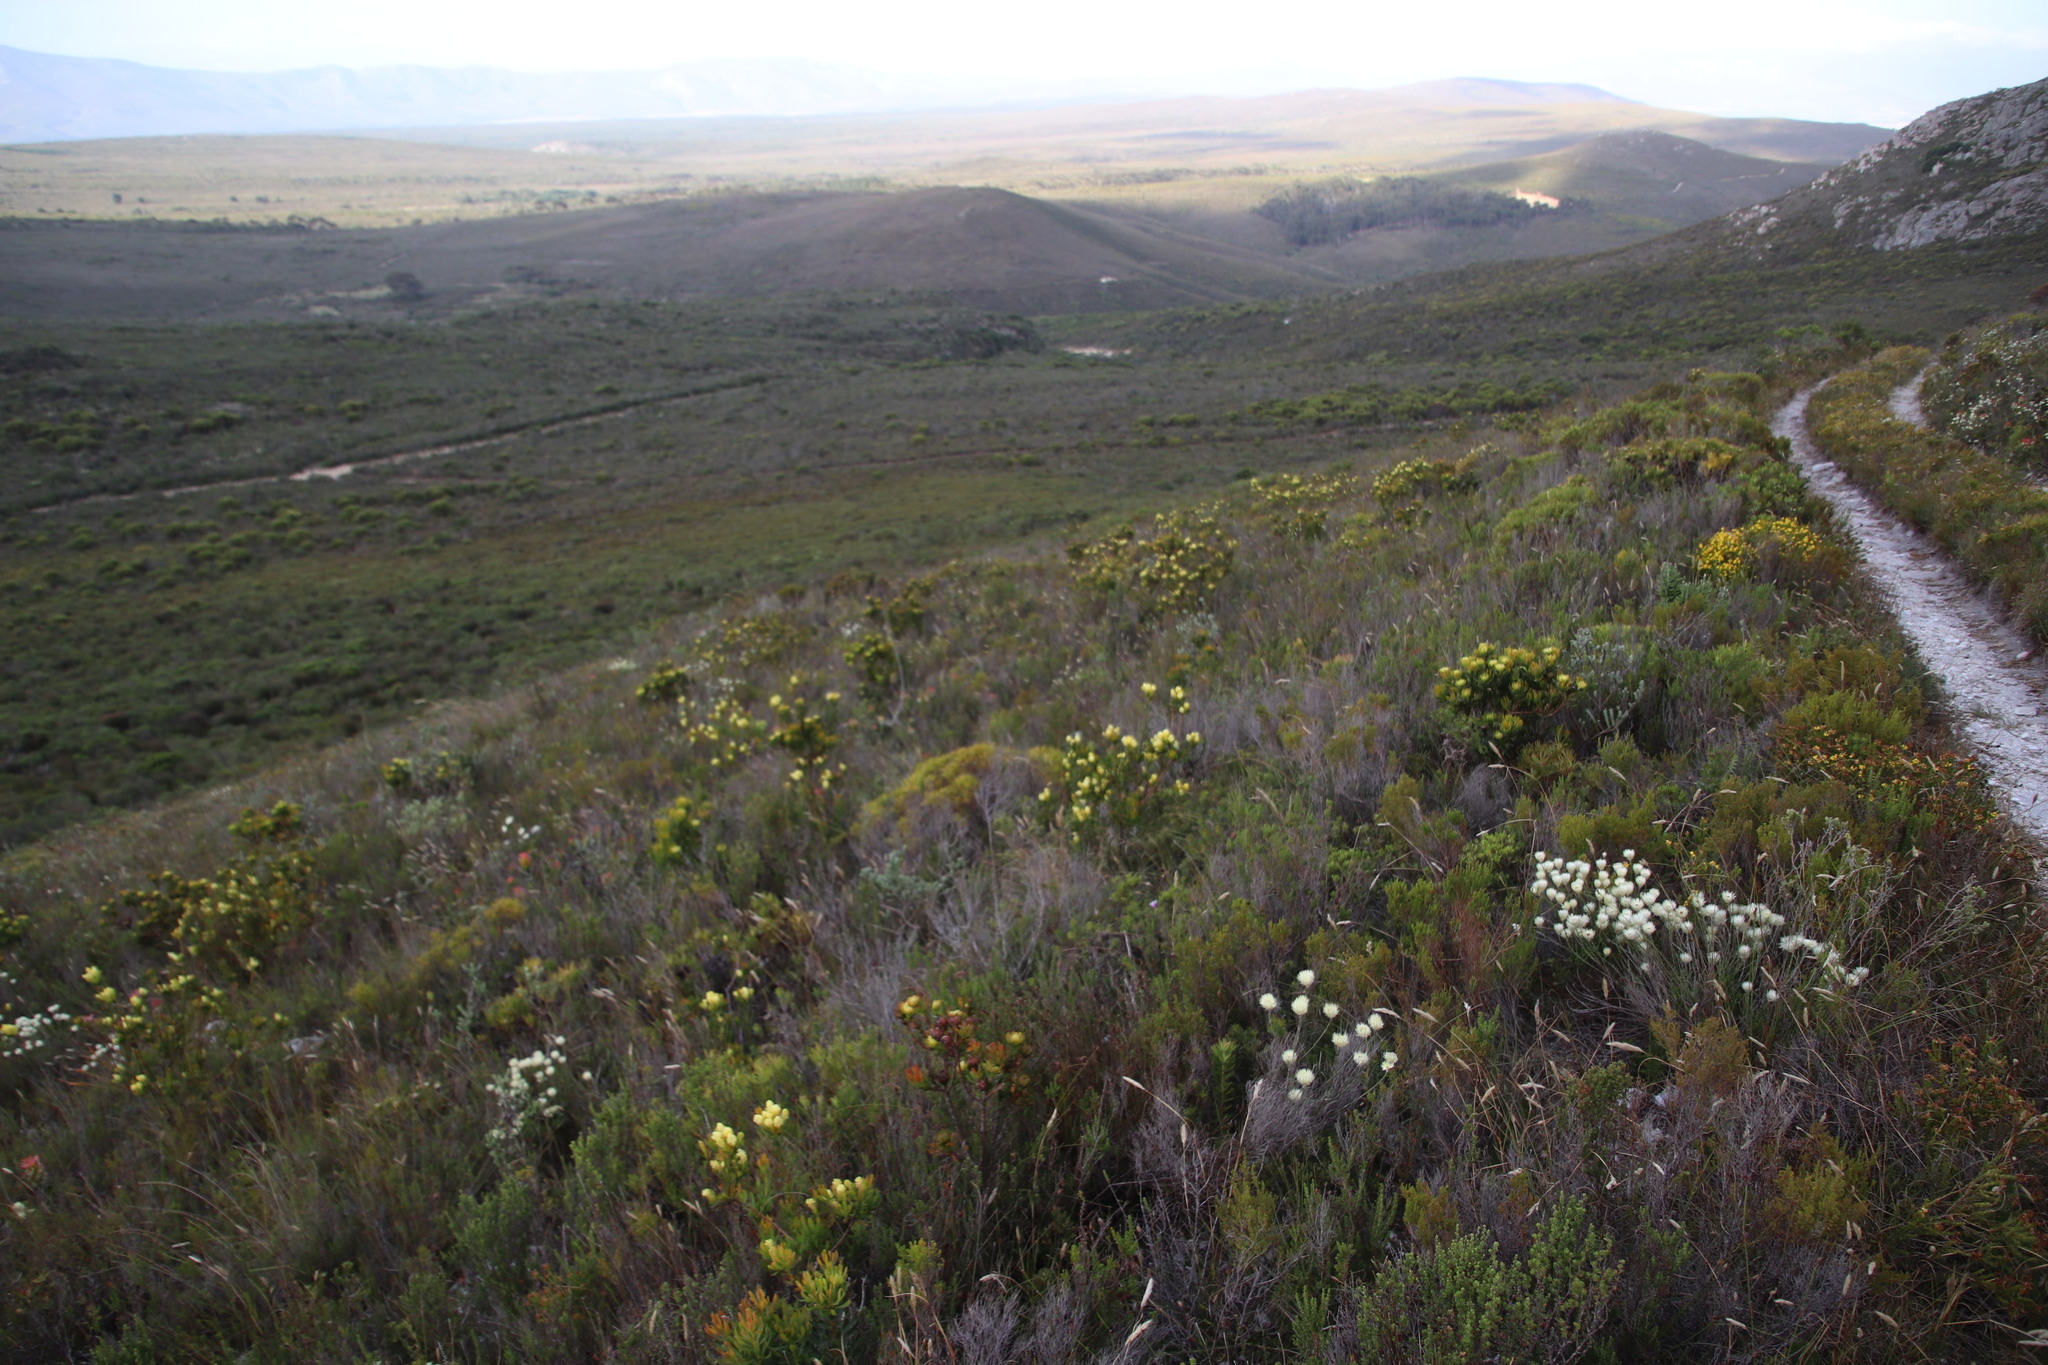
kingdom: Plantae
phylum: Tracheophyta
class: Magnoliopsida
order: Proteales
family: Proteaceae
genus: Aulax
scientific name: Aulax umbellata
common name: Broad-leaf featherbush
